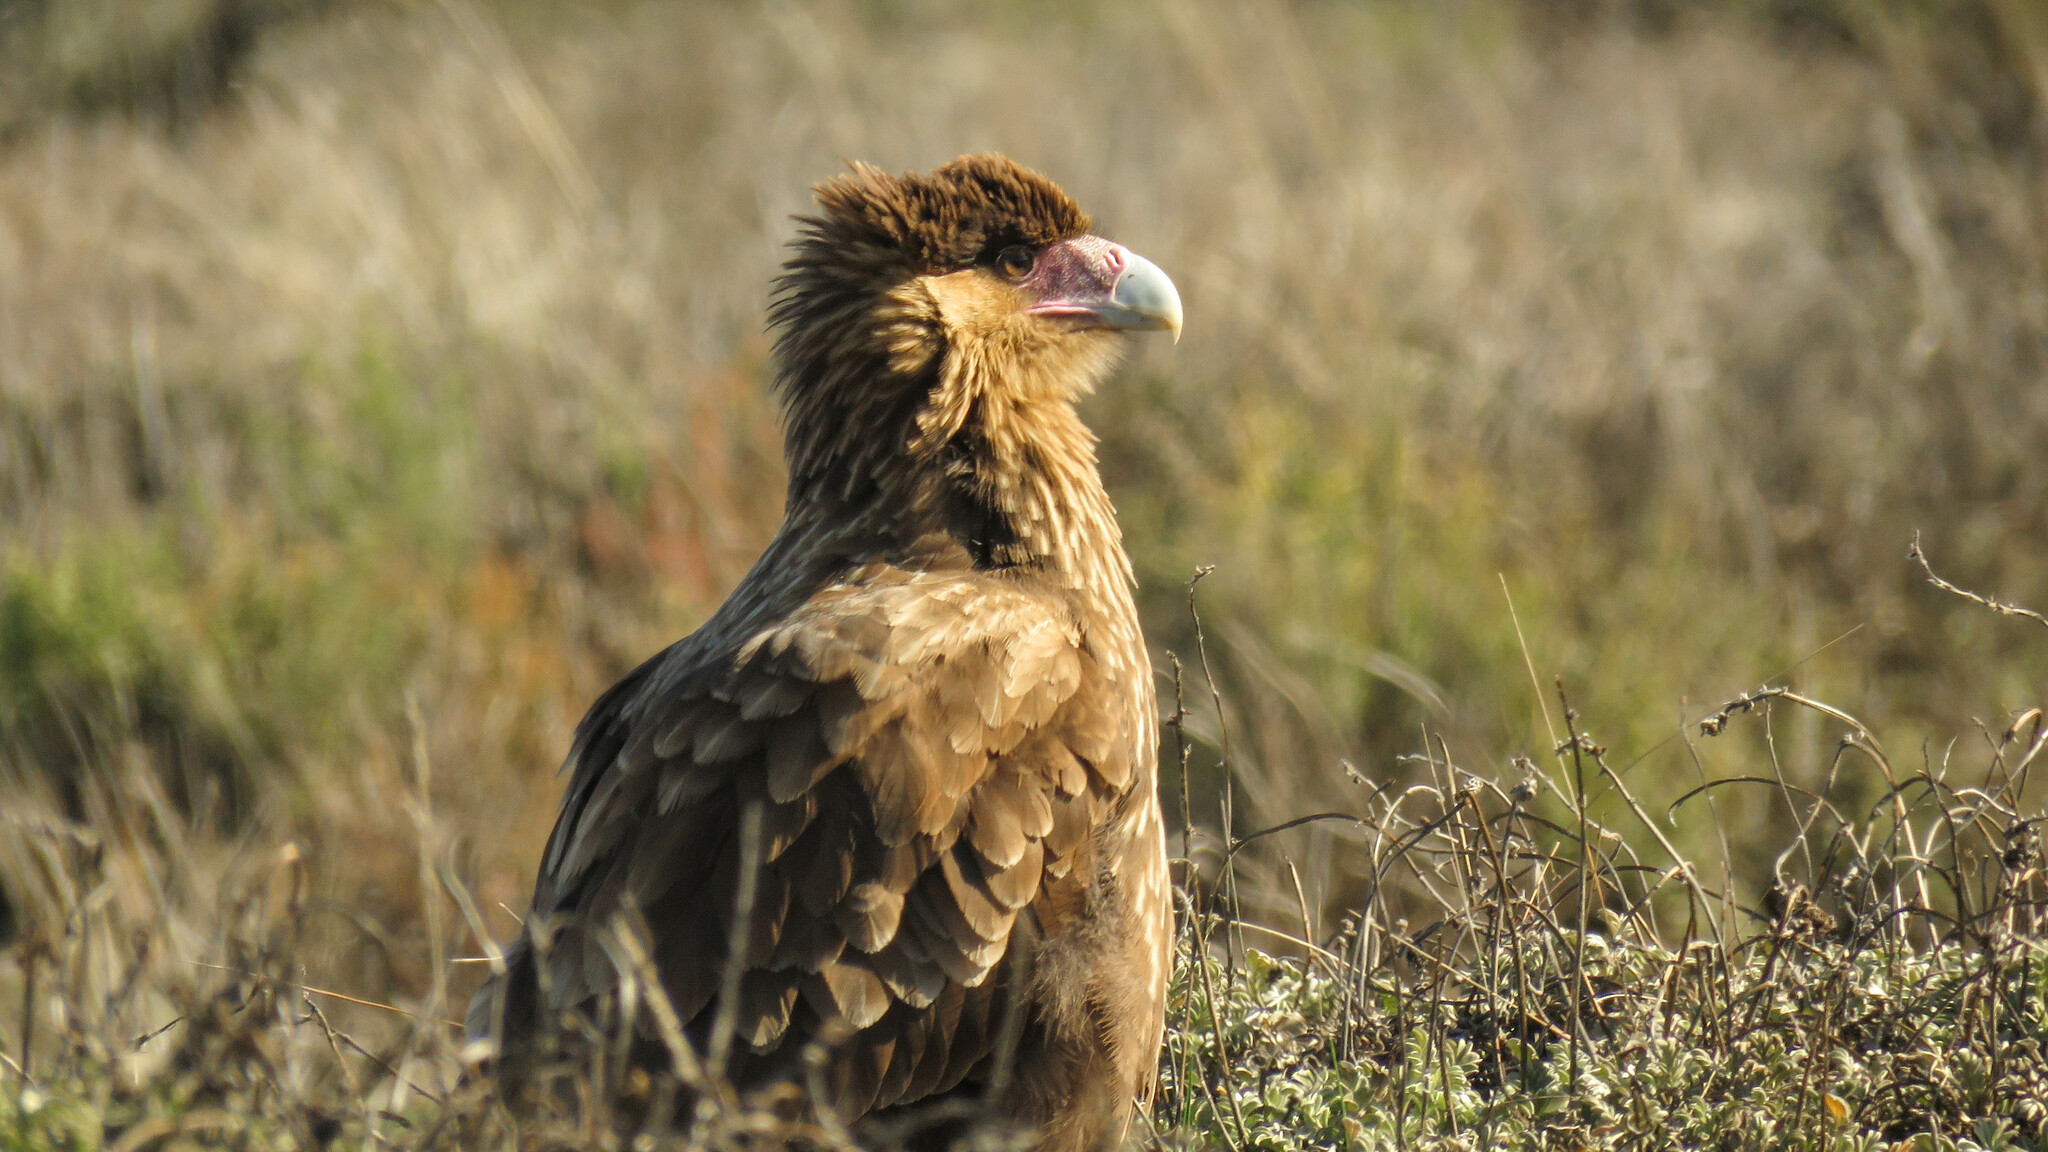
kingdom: Animalia
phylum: Chordata
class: Aves
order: Falconiformes
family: Falconidae
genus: Caracara
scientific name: Caracara plancus
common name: Southern caracara
